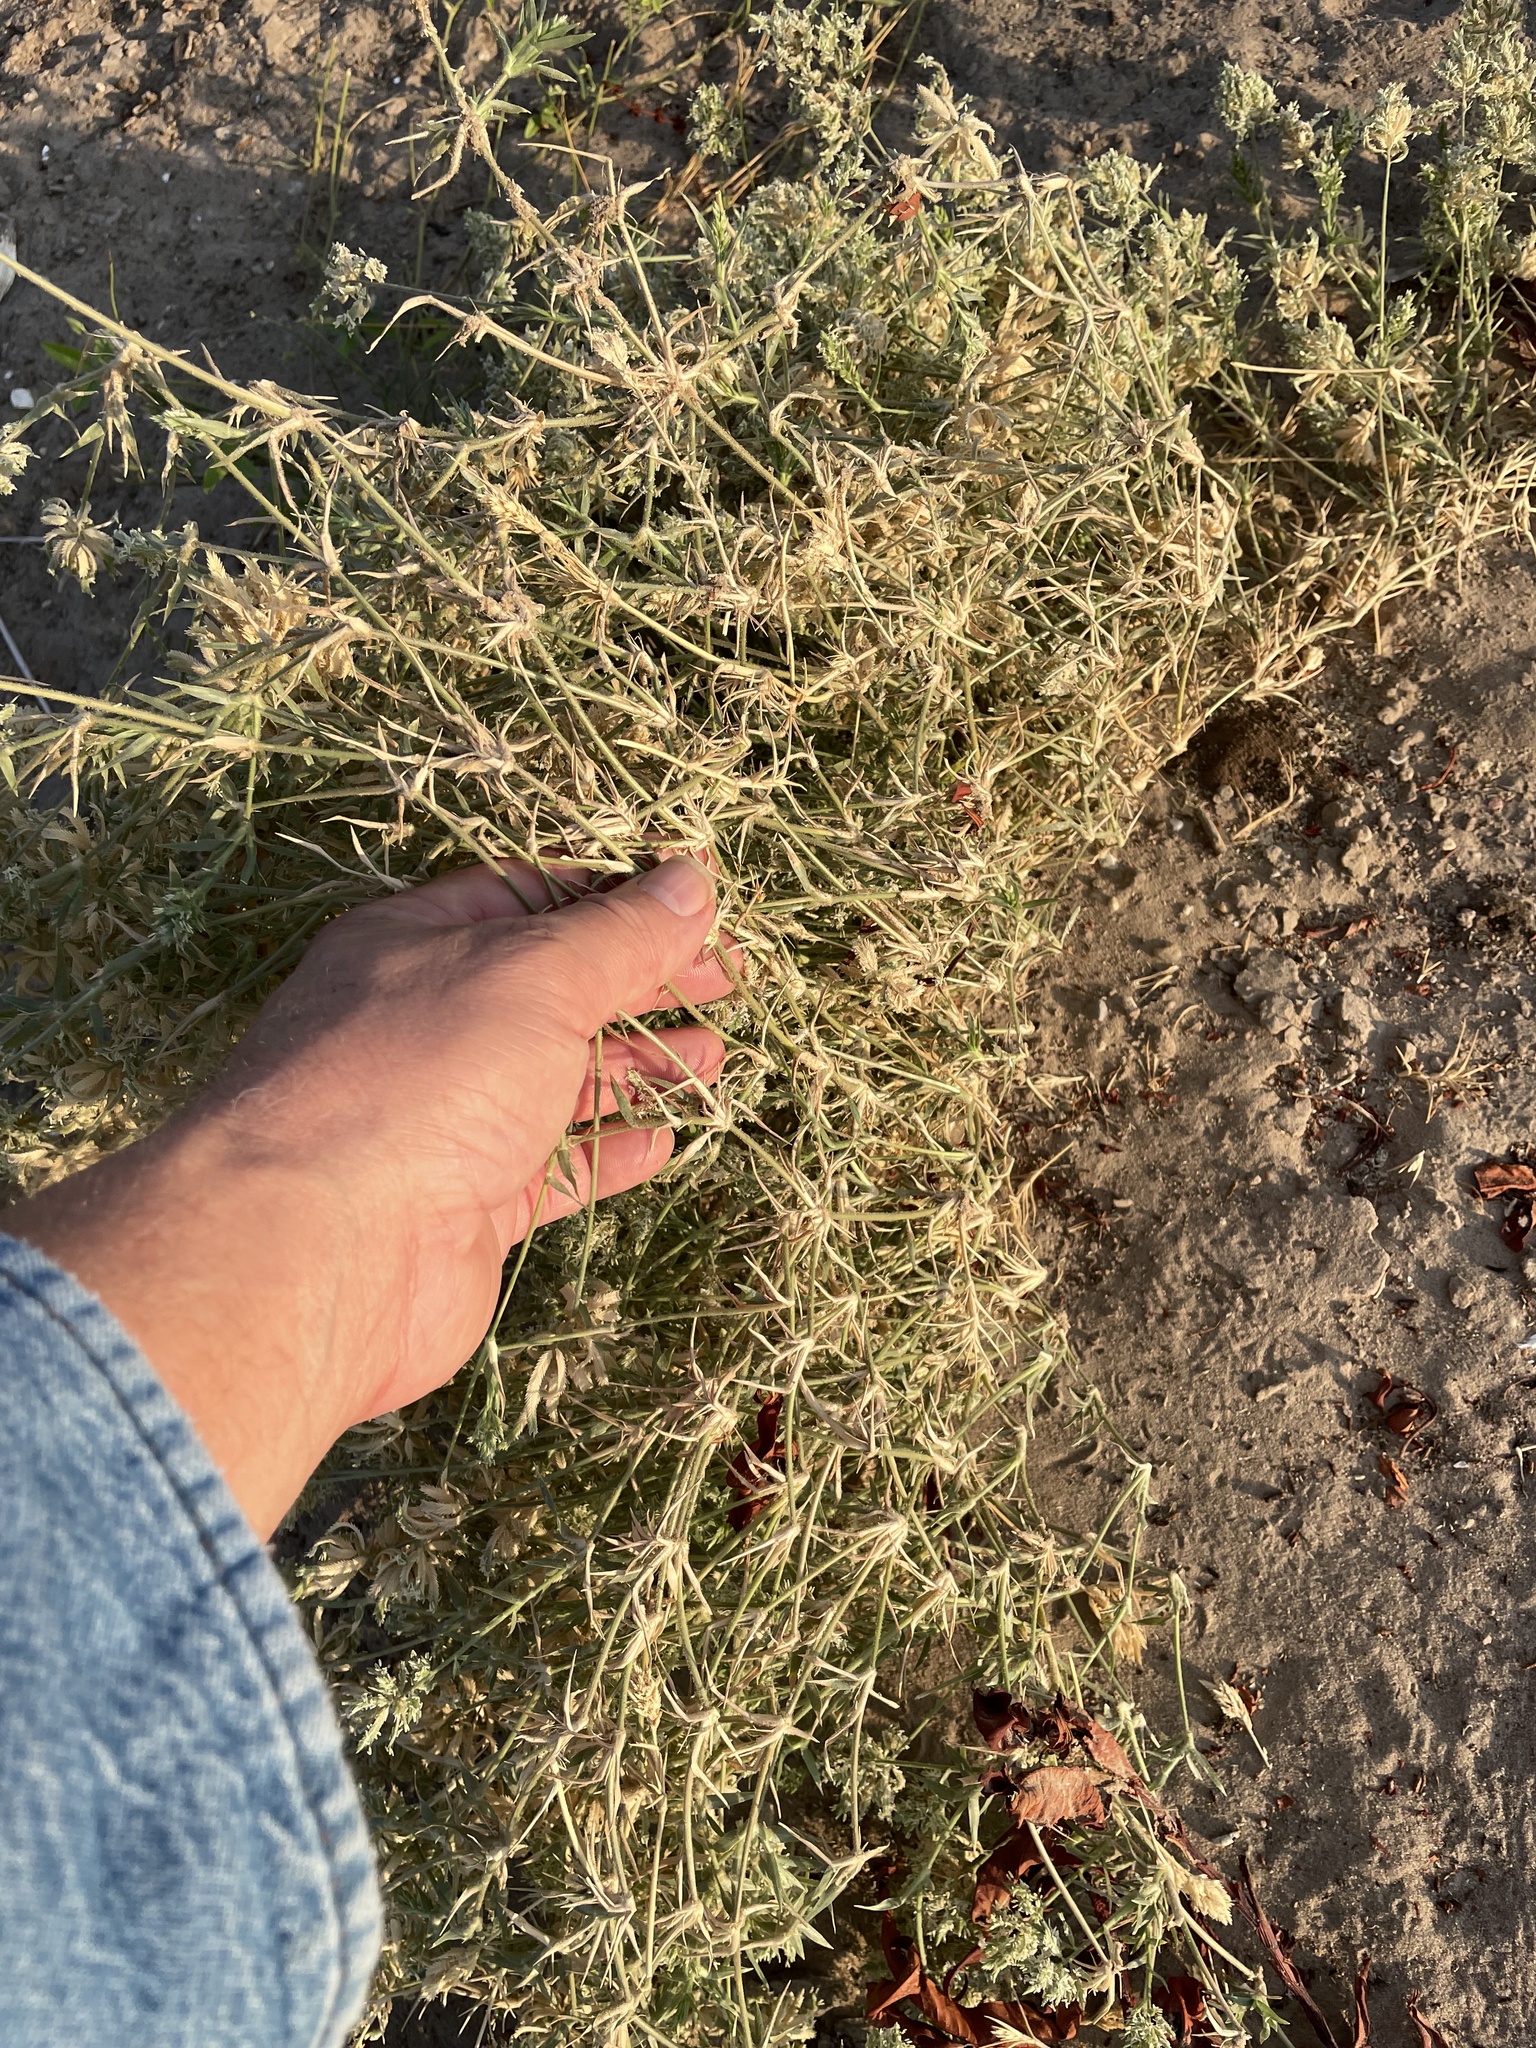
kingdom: Plantae
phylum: Tracheophyta
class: Liliopsida
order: Poales
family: Poaceae
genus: Eragrostis
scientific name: Eragrostis reptans
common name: Creeping love grass
